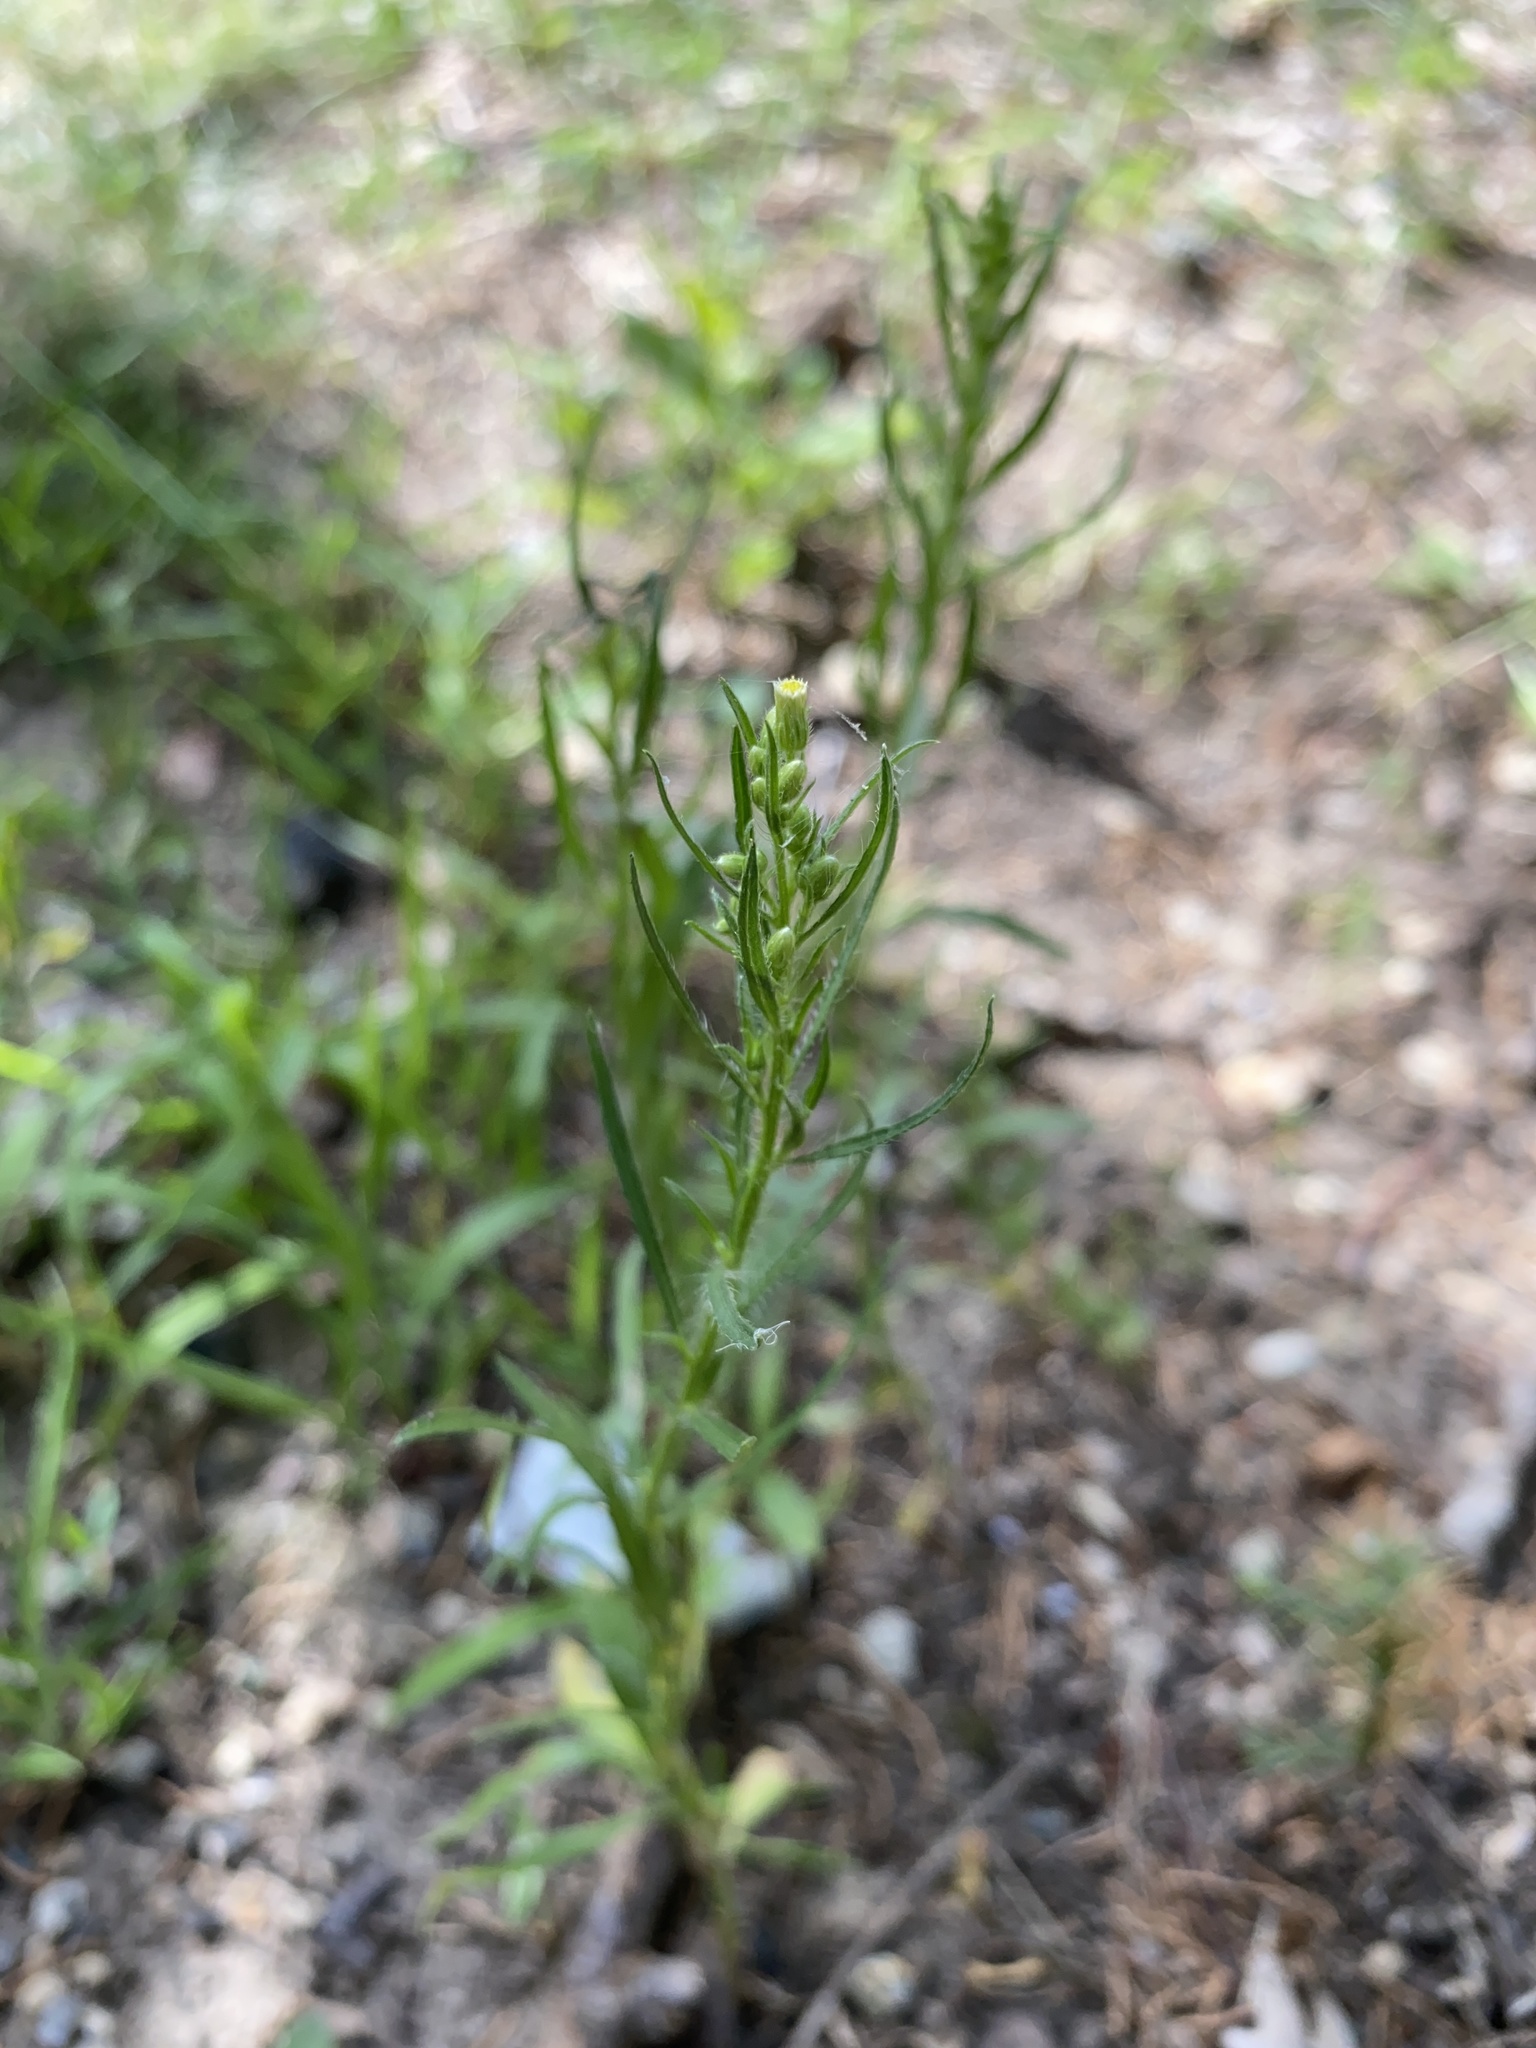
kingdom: Plantae
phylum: Tracheophyta
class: Magnoliopsida
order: Asterales
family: Asteraceae
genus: Erigeron
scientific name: Erigeron canadensis
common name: Canadian fleabane
